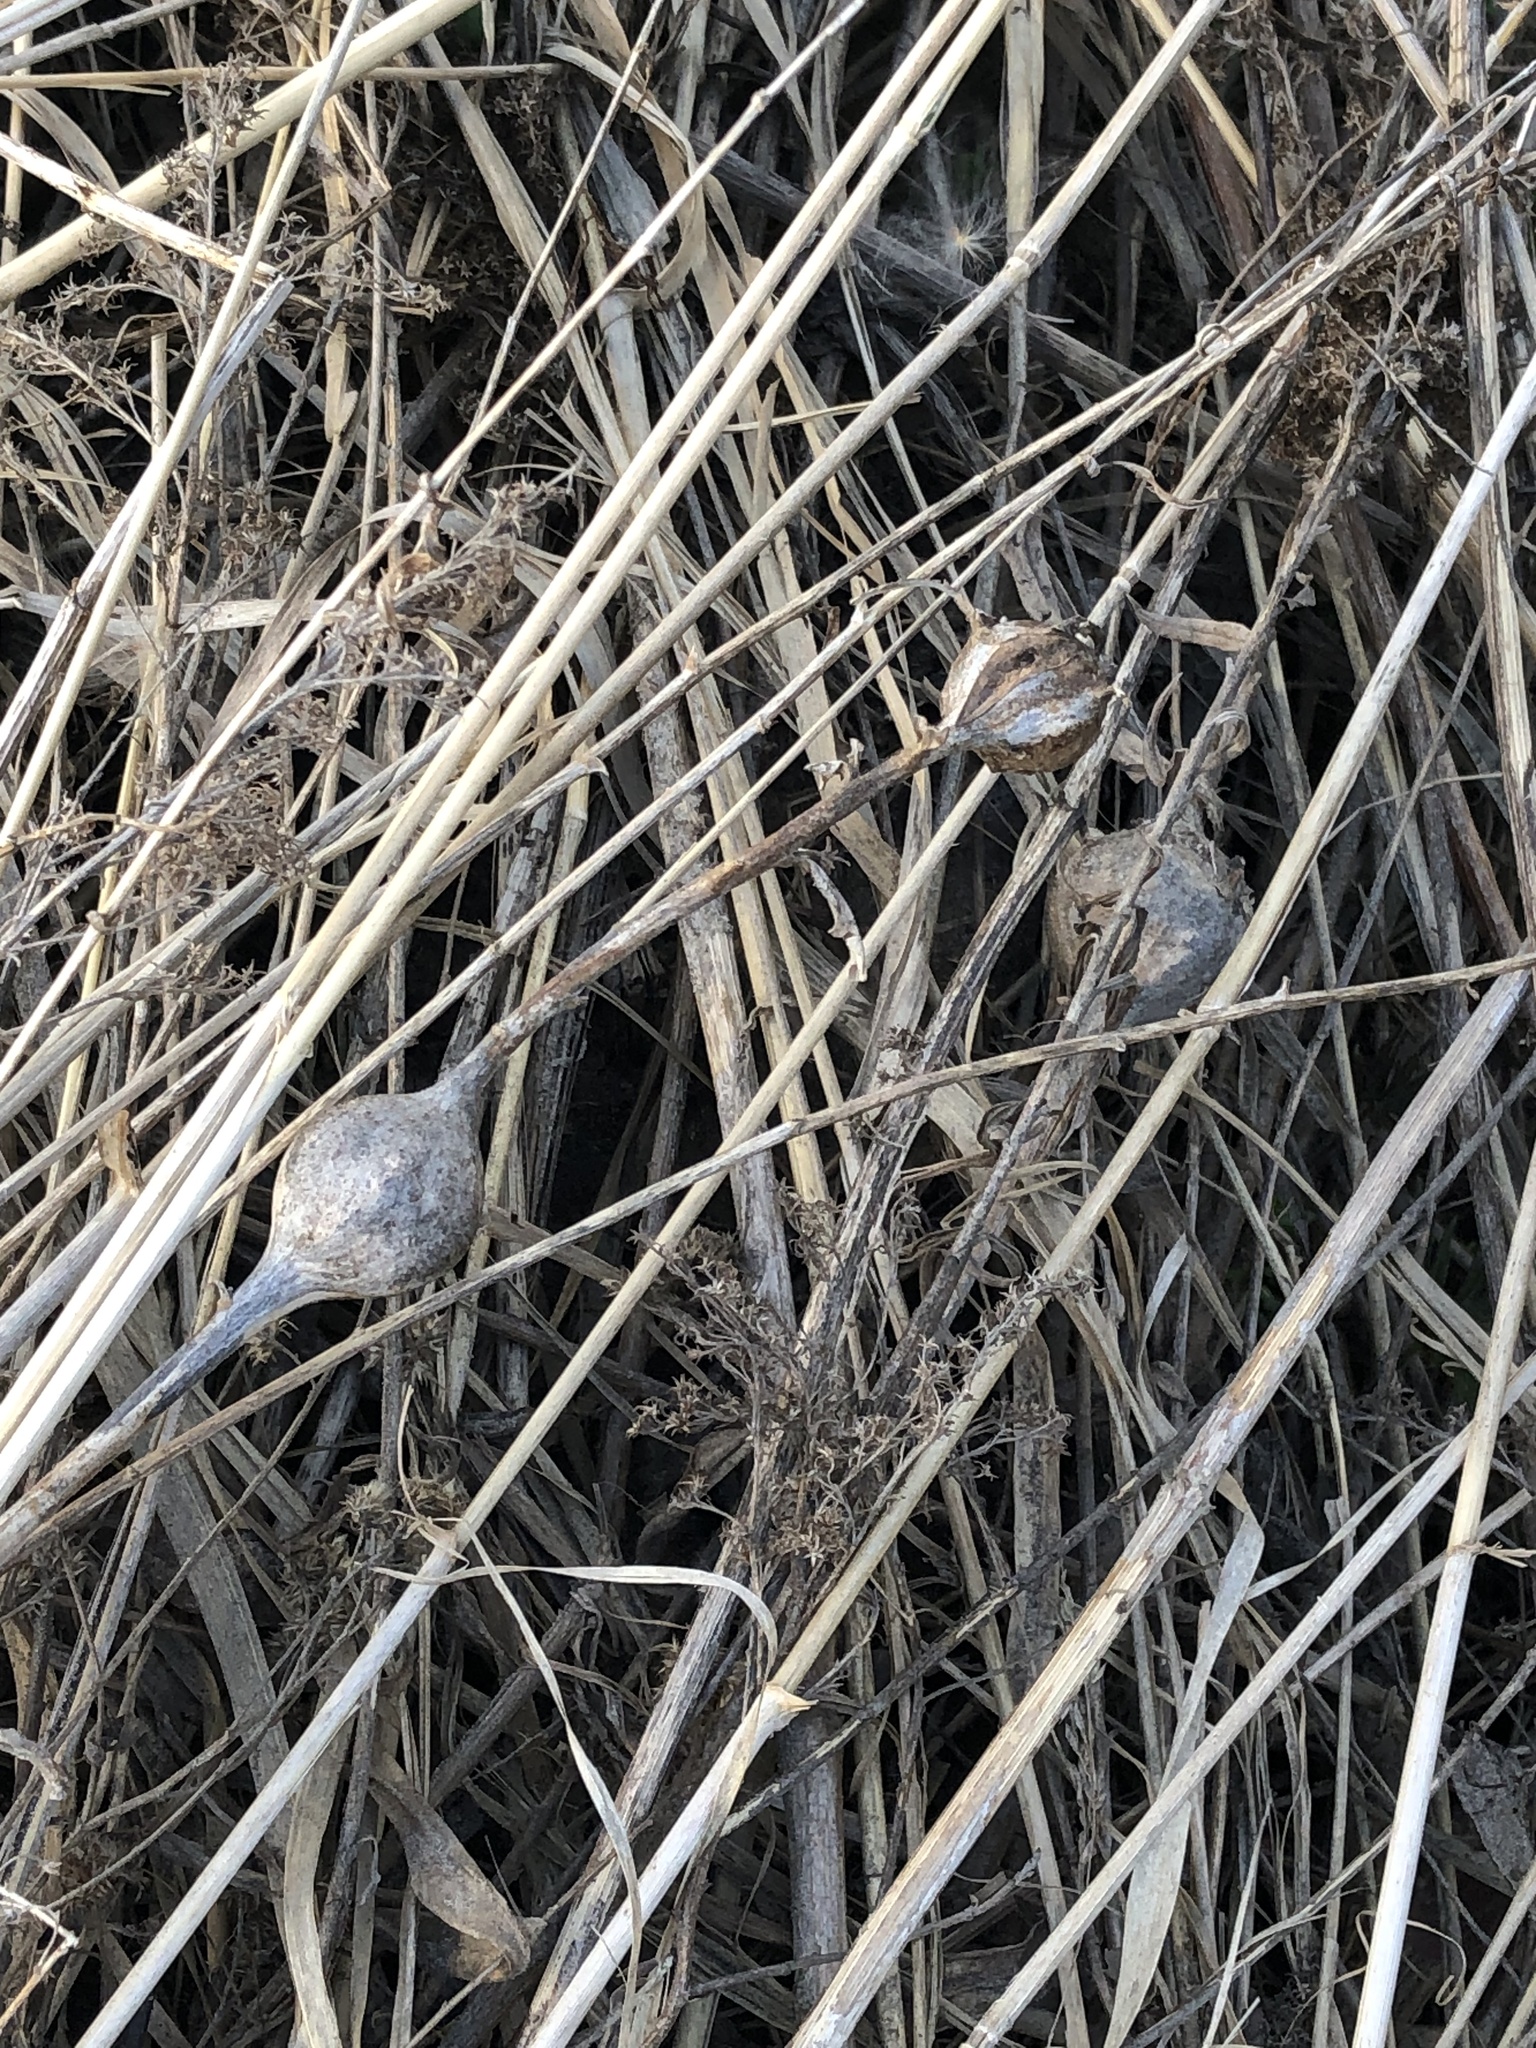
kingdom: Animalia
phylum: Arthropoda
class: Insecta
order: Diptera
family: Tephritidae
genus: Eurosta
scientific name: Eurosta solidaginis
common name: Goldenrod gall fly
